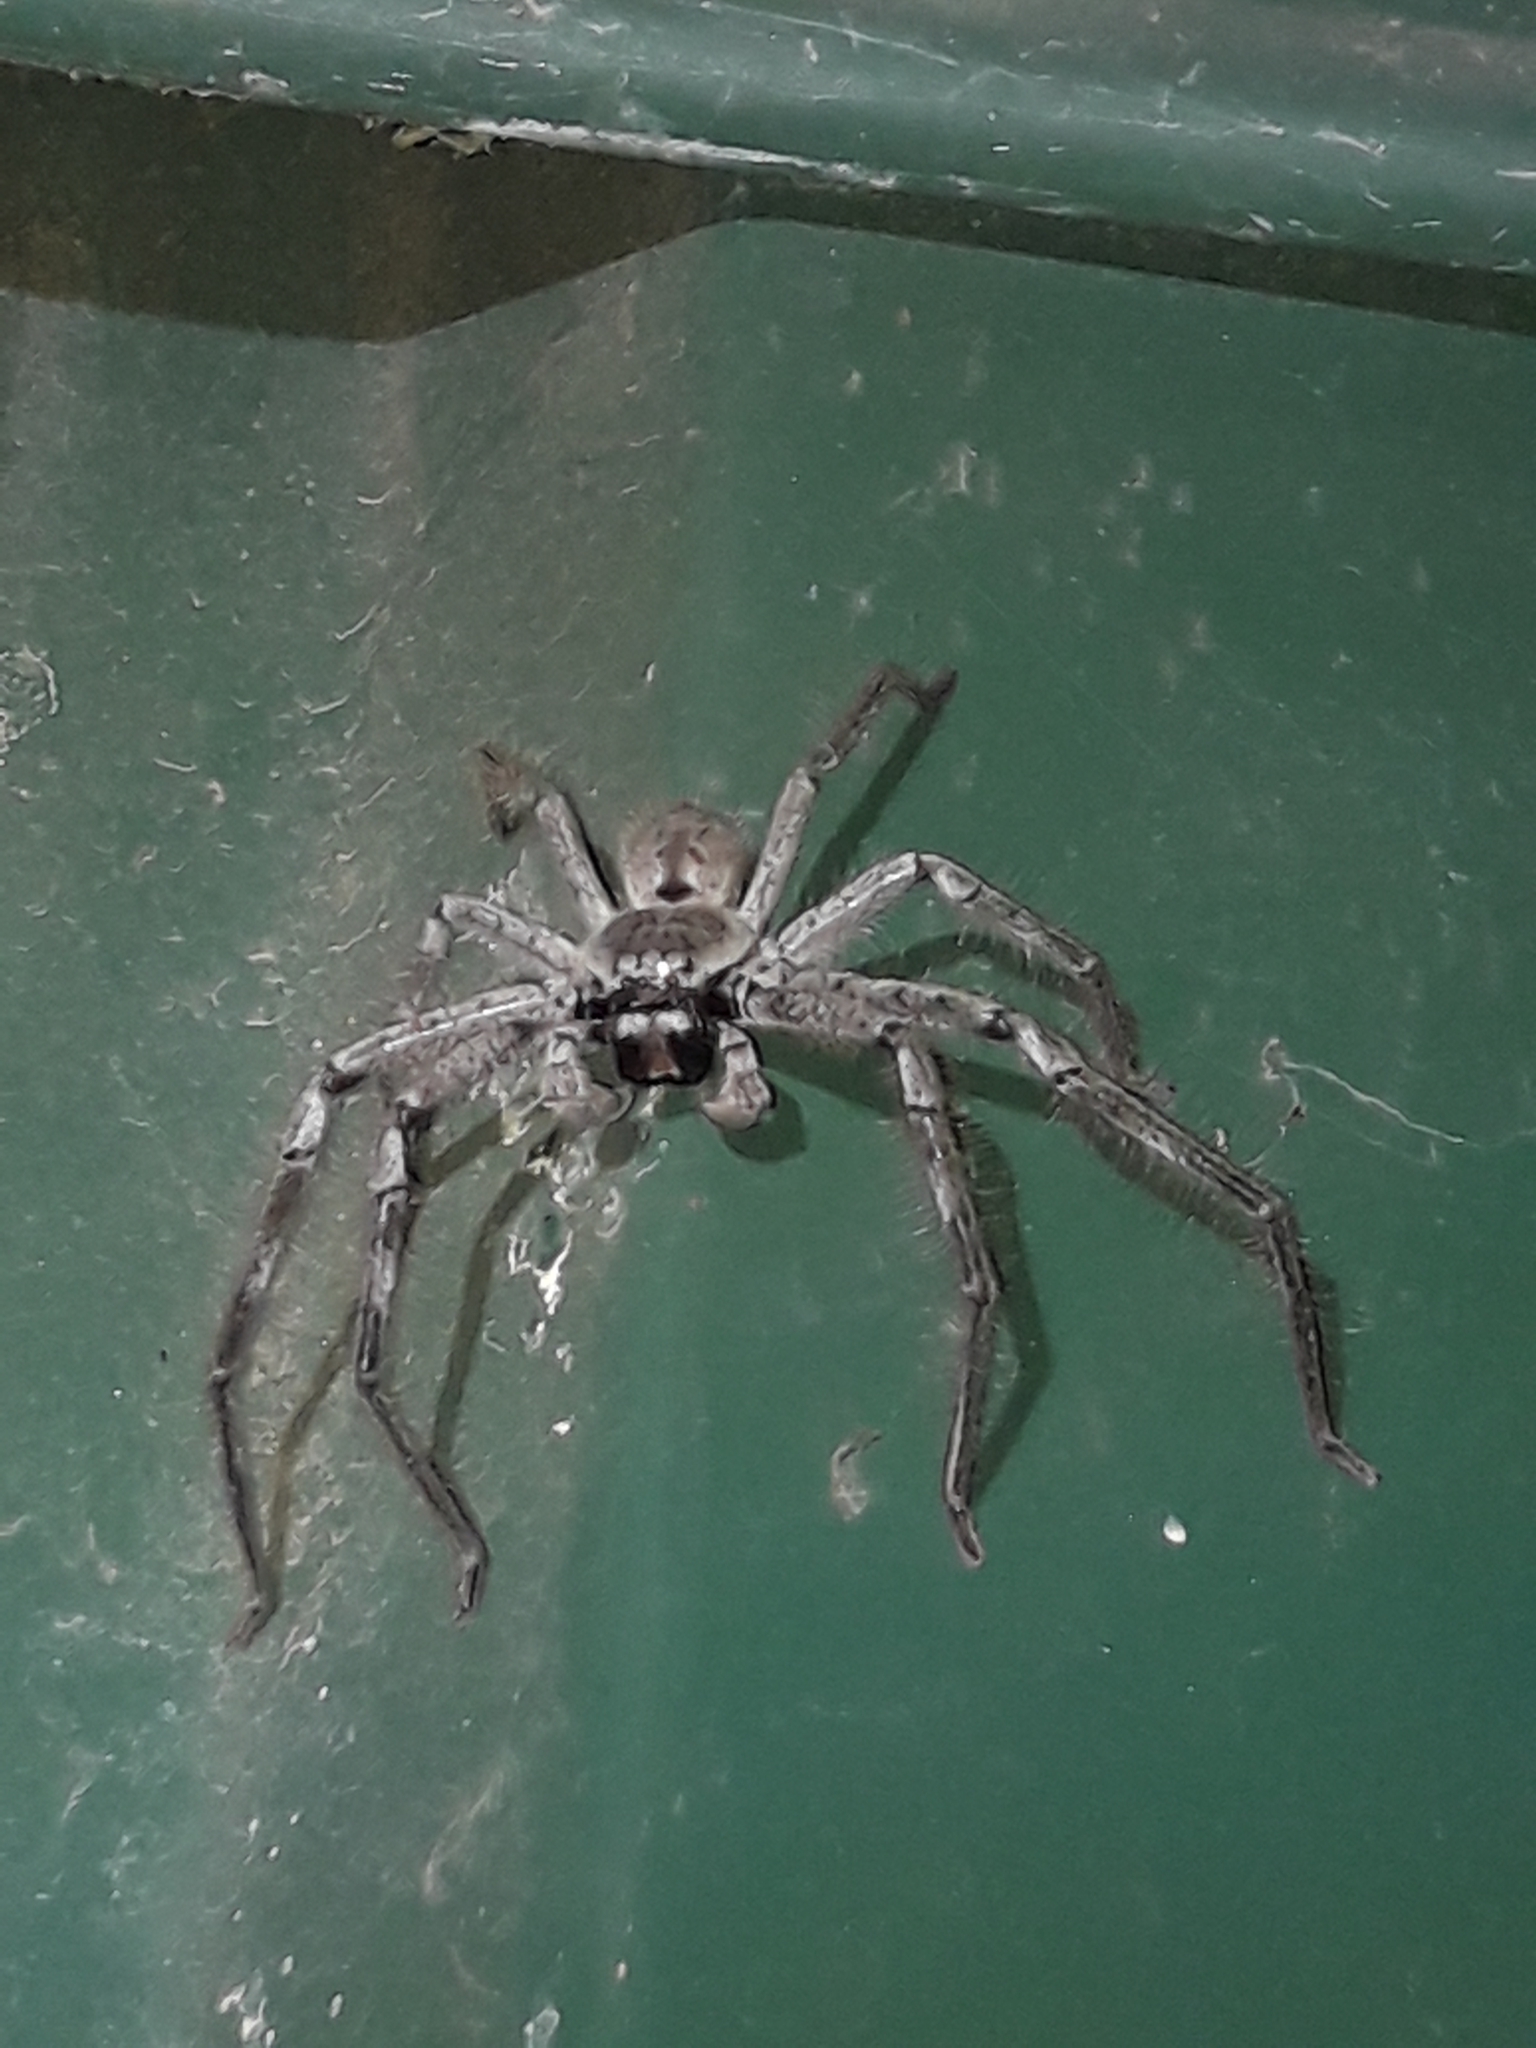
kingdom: Animalia
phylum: Arthropoda
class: Arachnida
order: Araneae
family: Sparassidae
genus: Isopeda
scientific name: Isopeda montana
